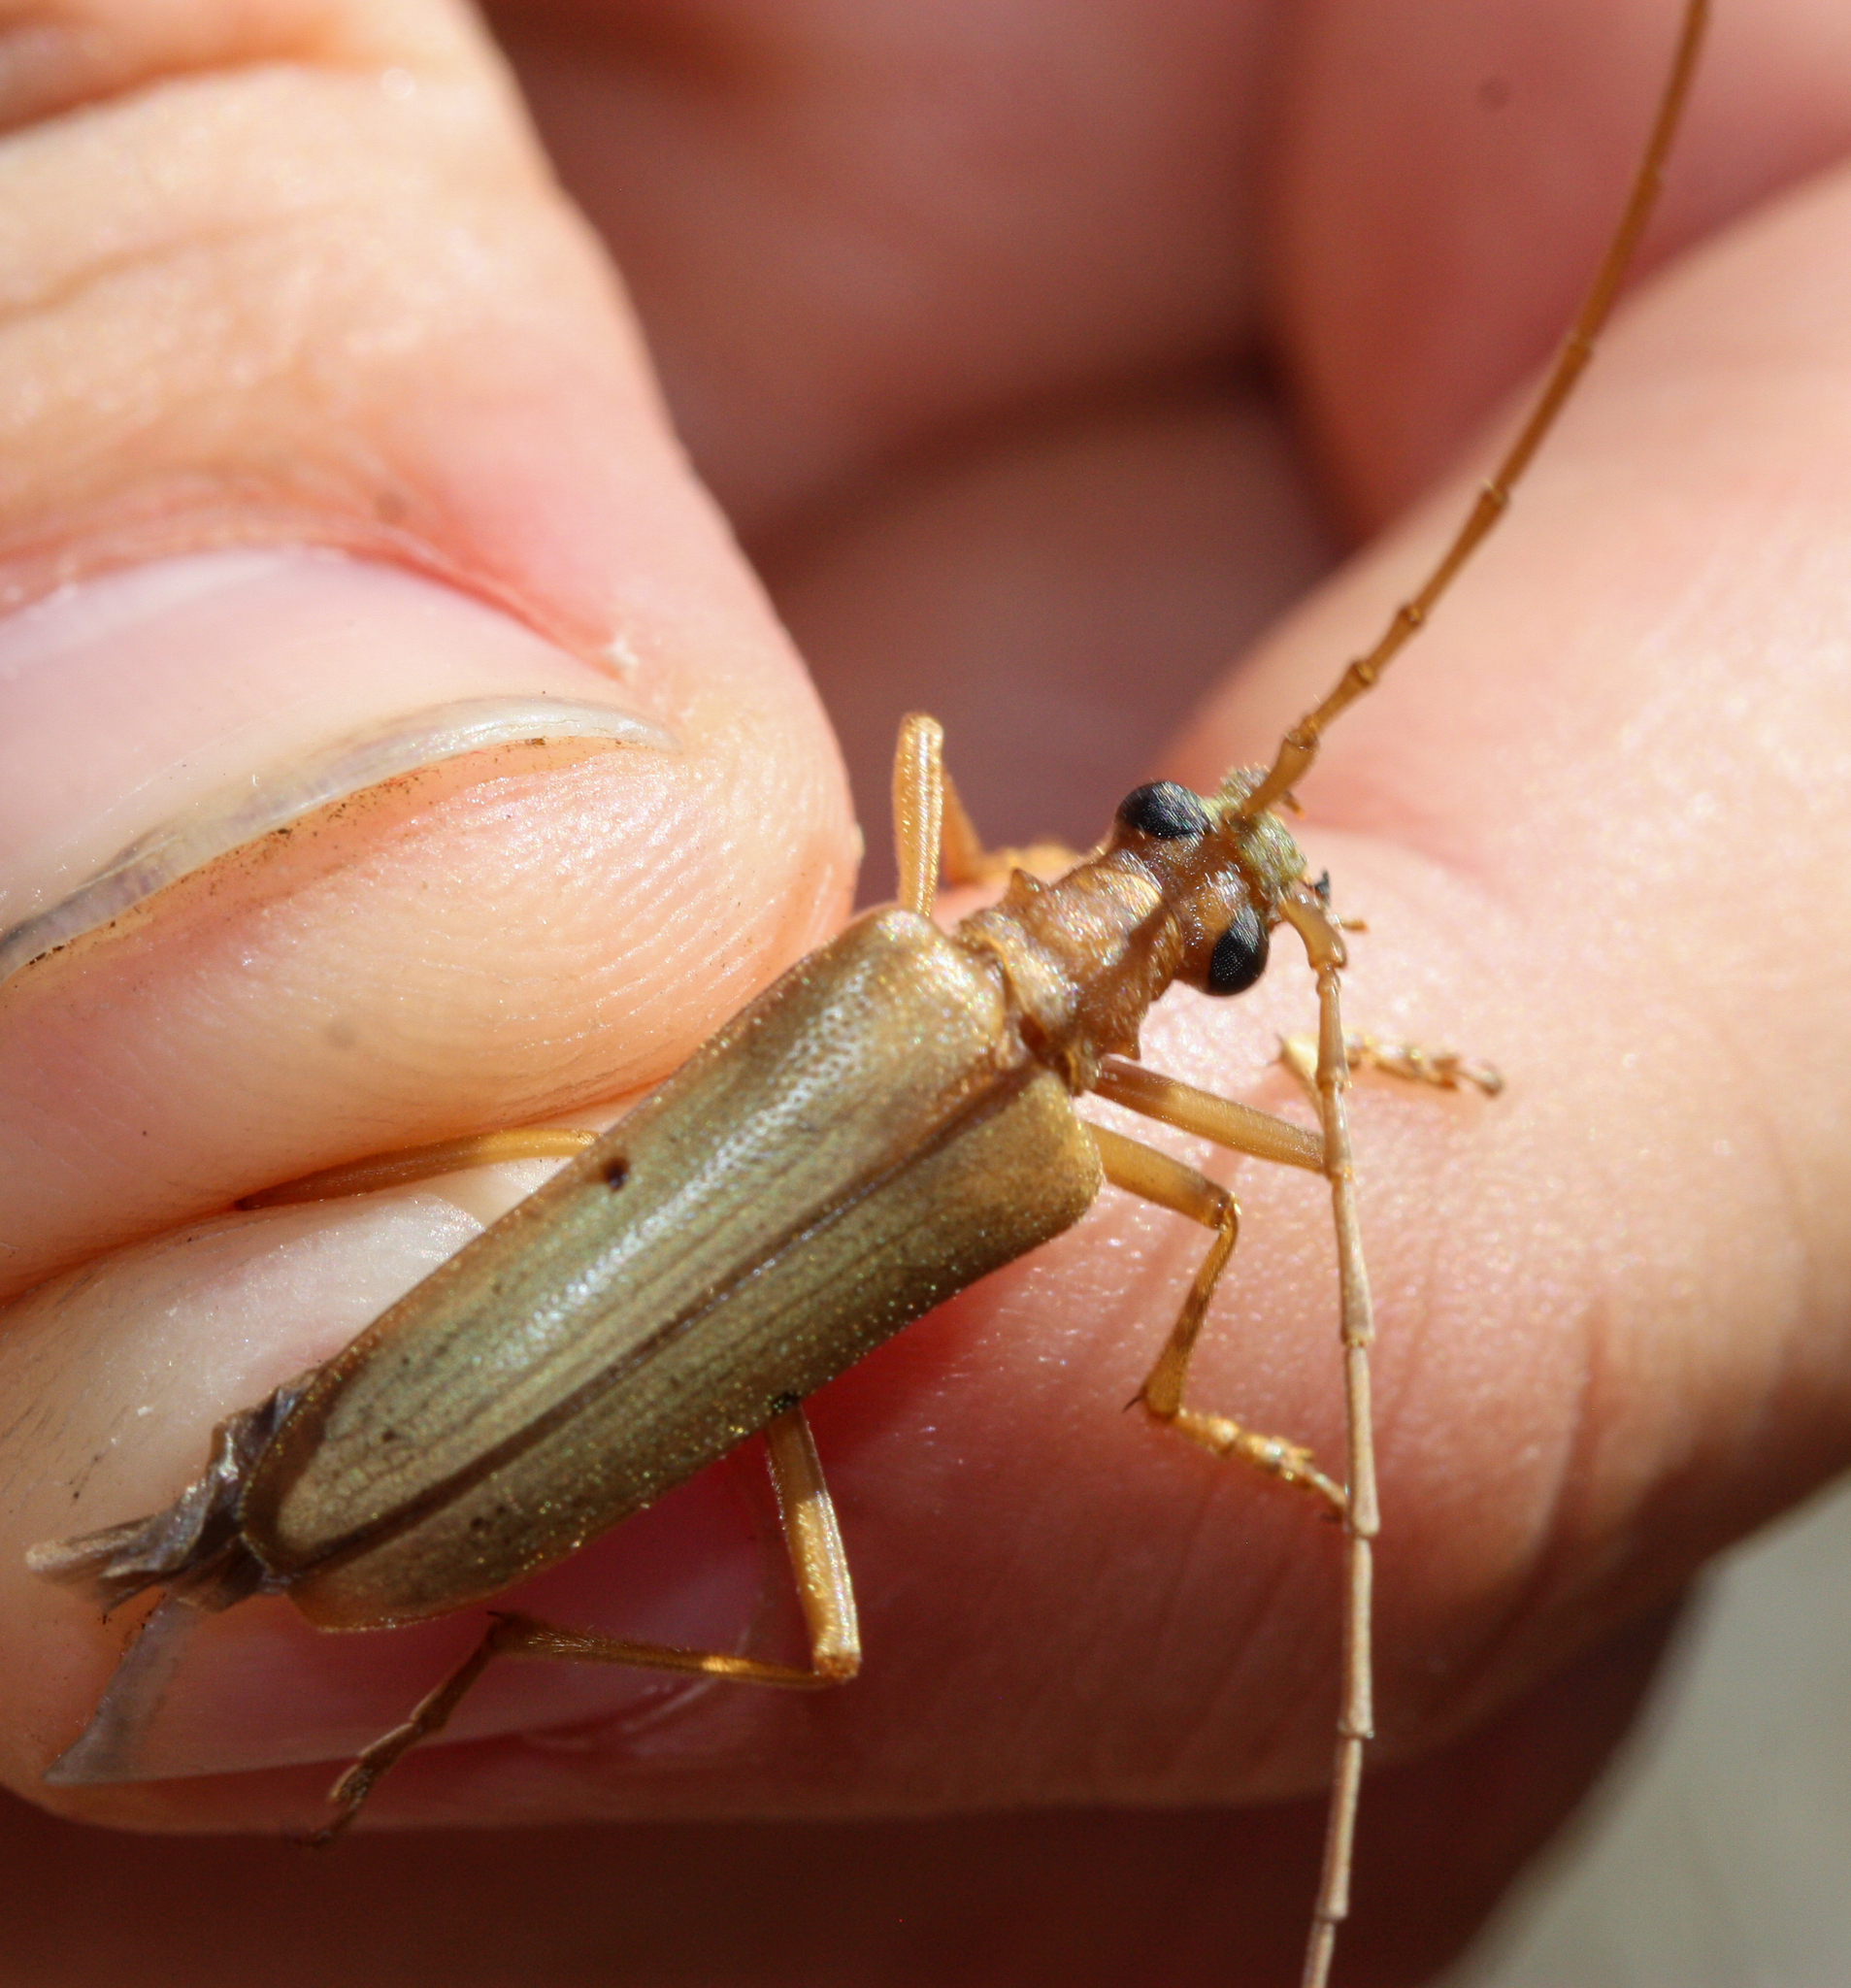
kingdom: Animalia
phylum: Arthropoda
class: Insecta
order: Coleoptera
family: Cerambycidae
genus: Centrodera
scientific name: Centrodera spurca
